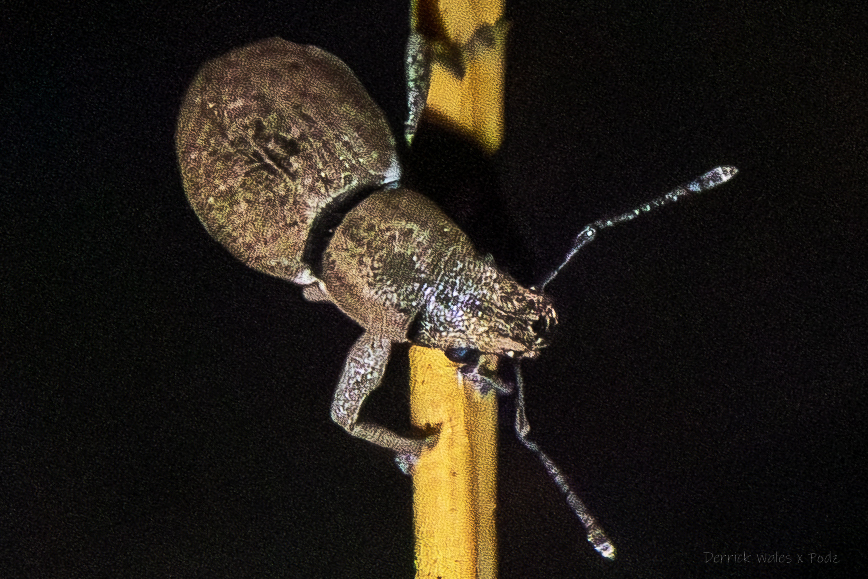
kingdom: Animalia
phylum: Arthropoda
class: Insecta
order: Coleoptera
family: Curculionidae
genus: Naupactus
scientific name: Naupactus cervinus
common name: Fuller rose beetle
